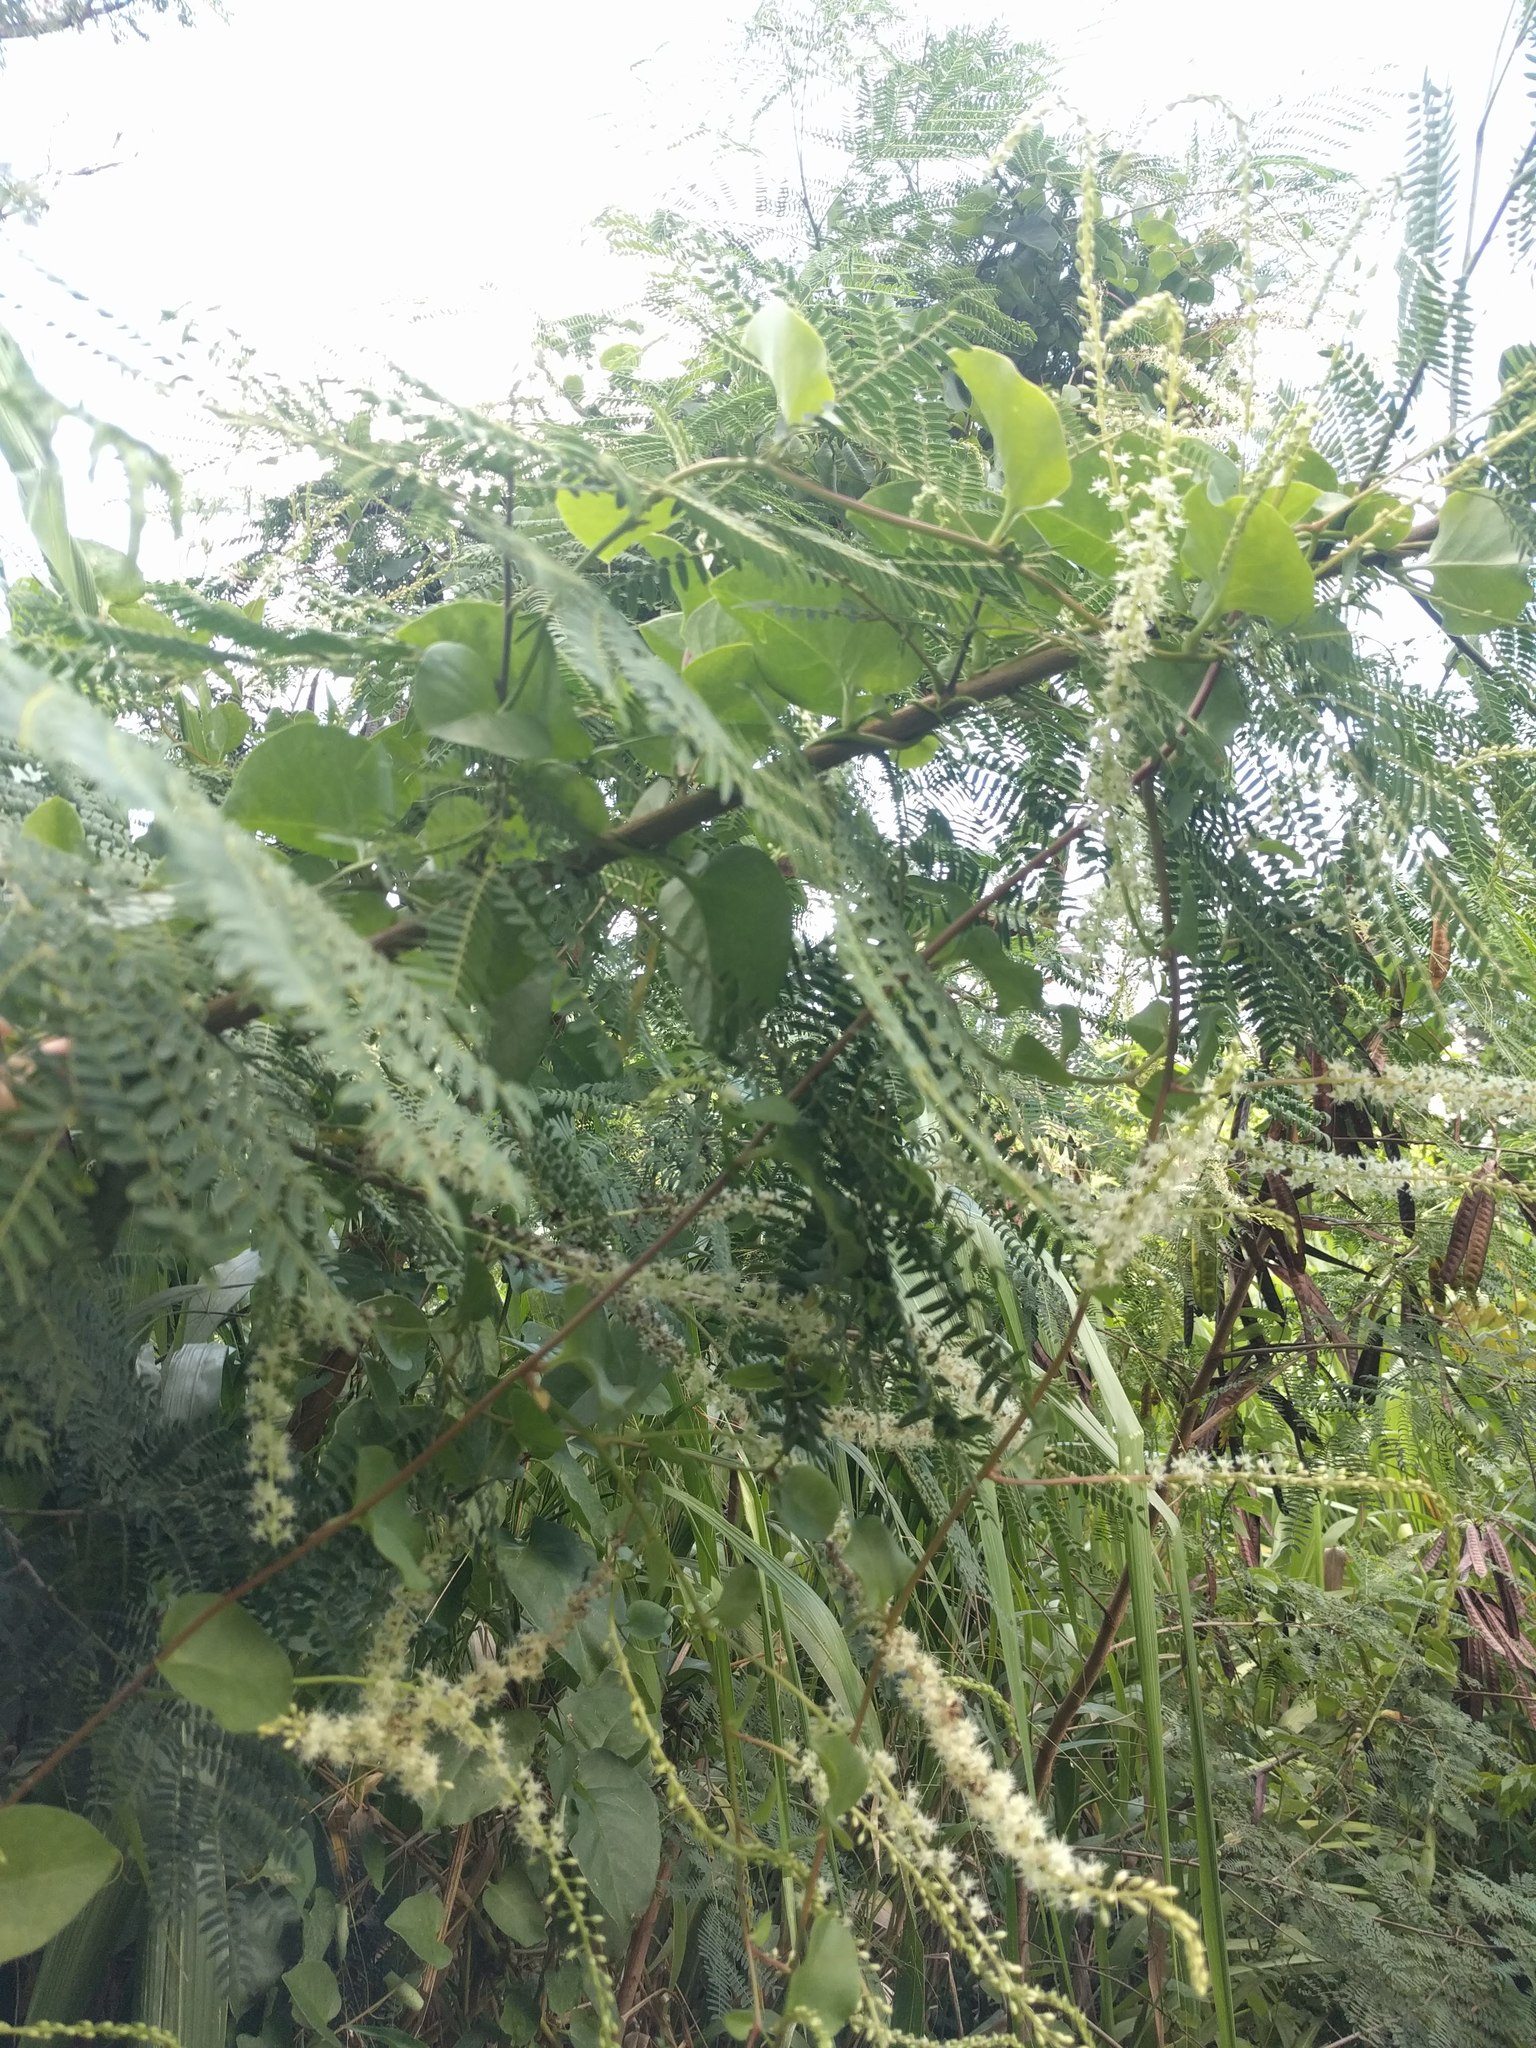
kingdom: Plantae
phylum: Tracheophyta
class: Magnoliopsida
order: Caryophyllales
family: Basellaceae
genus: Anredera
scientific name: Anredera cordifolia
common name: Heartleaf madeiravine
